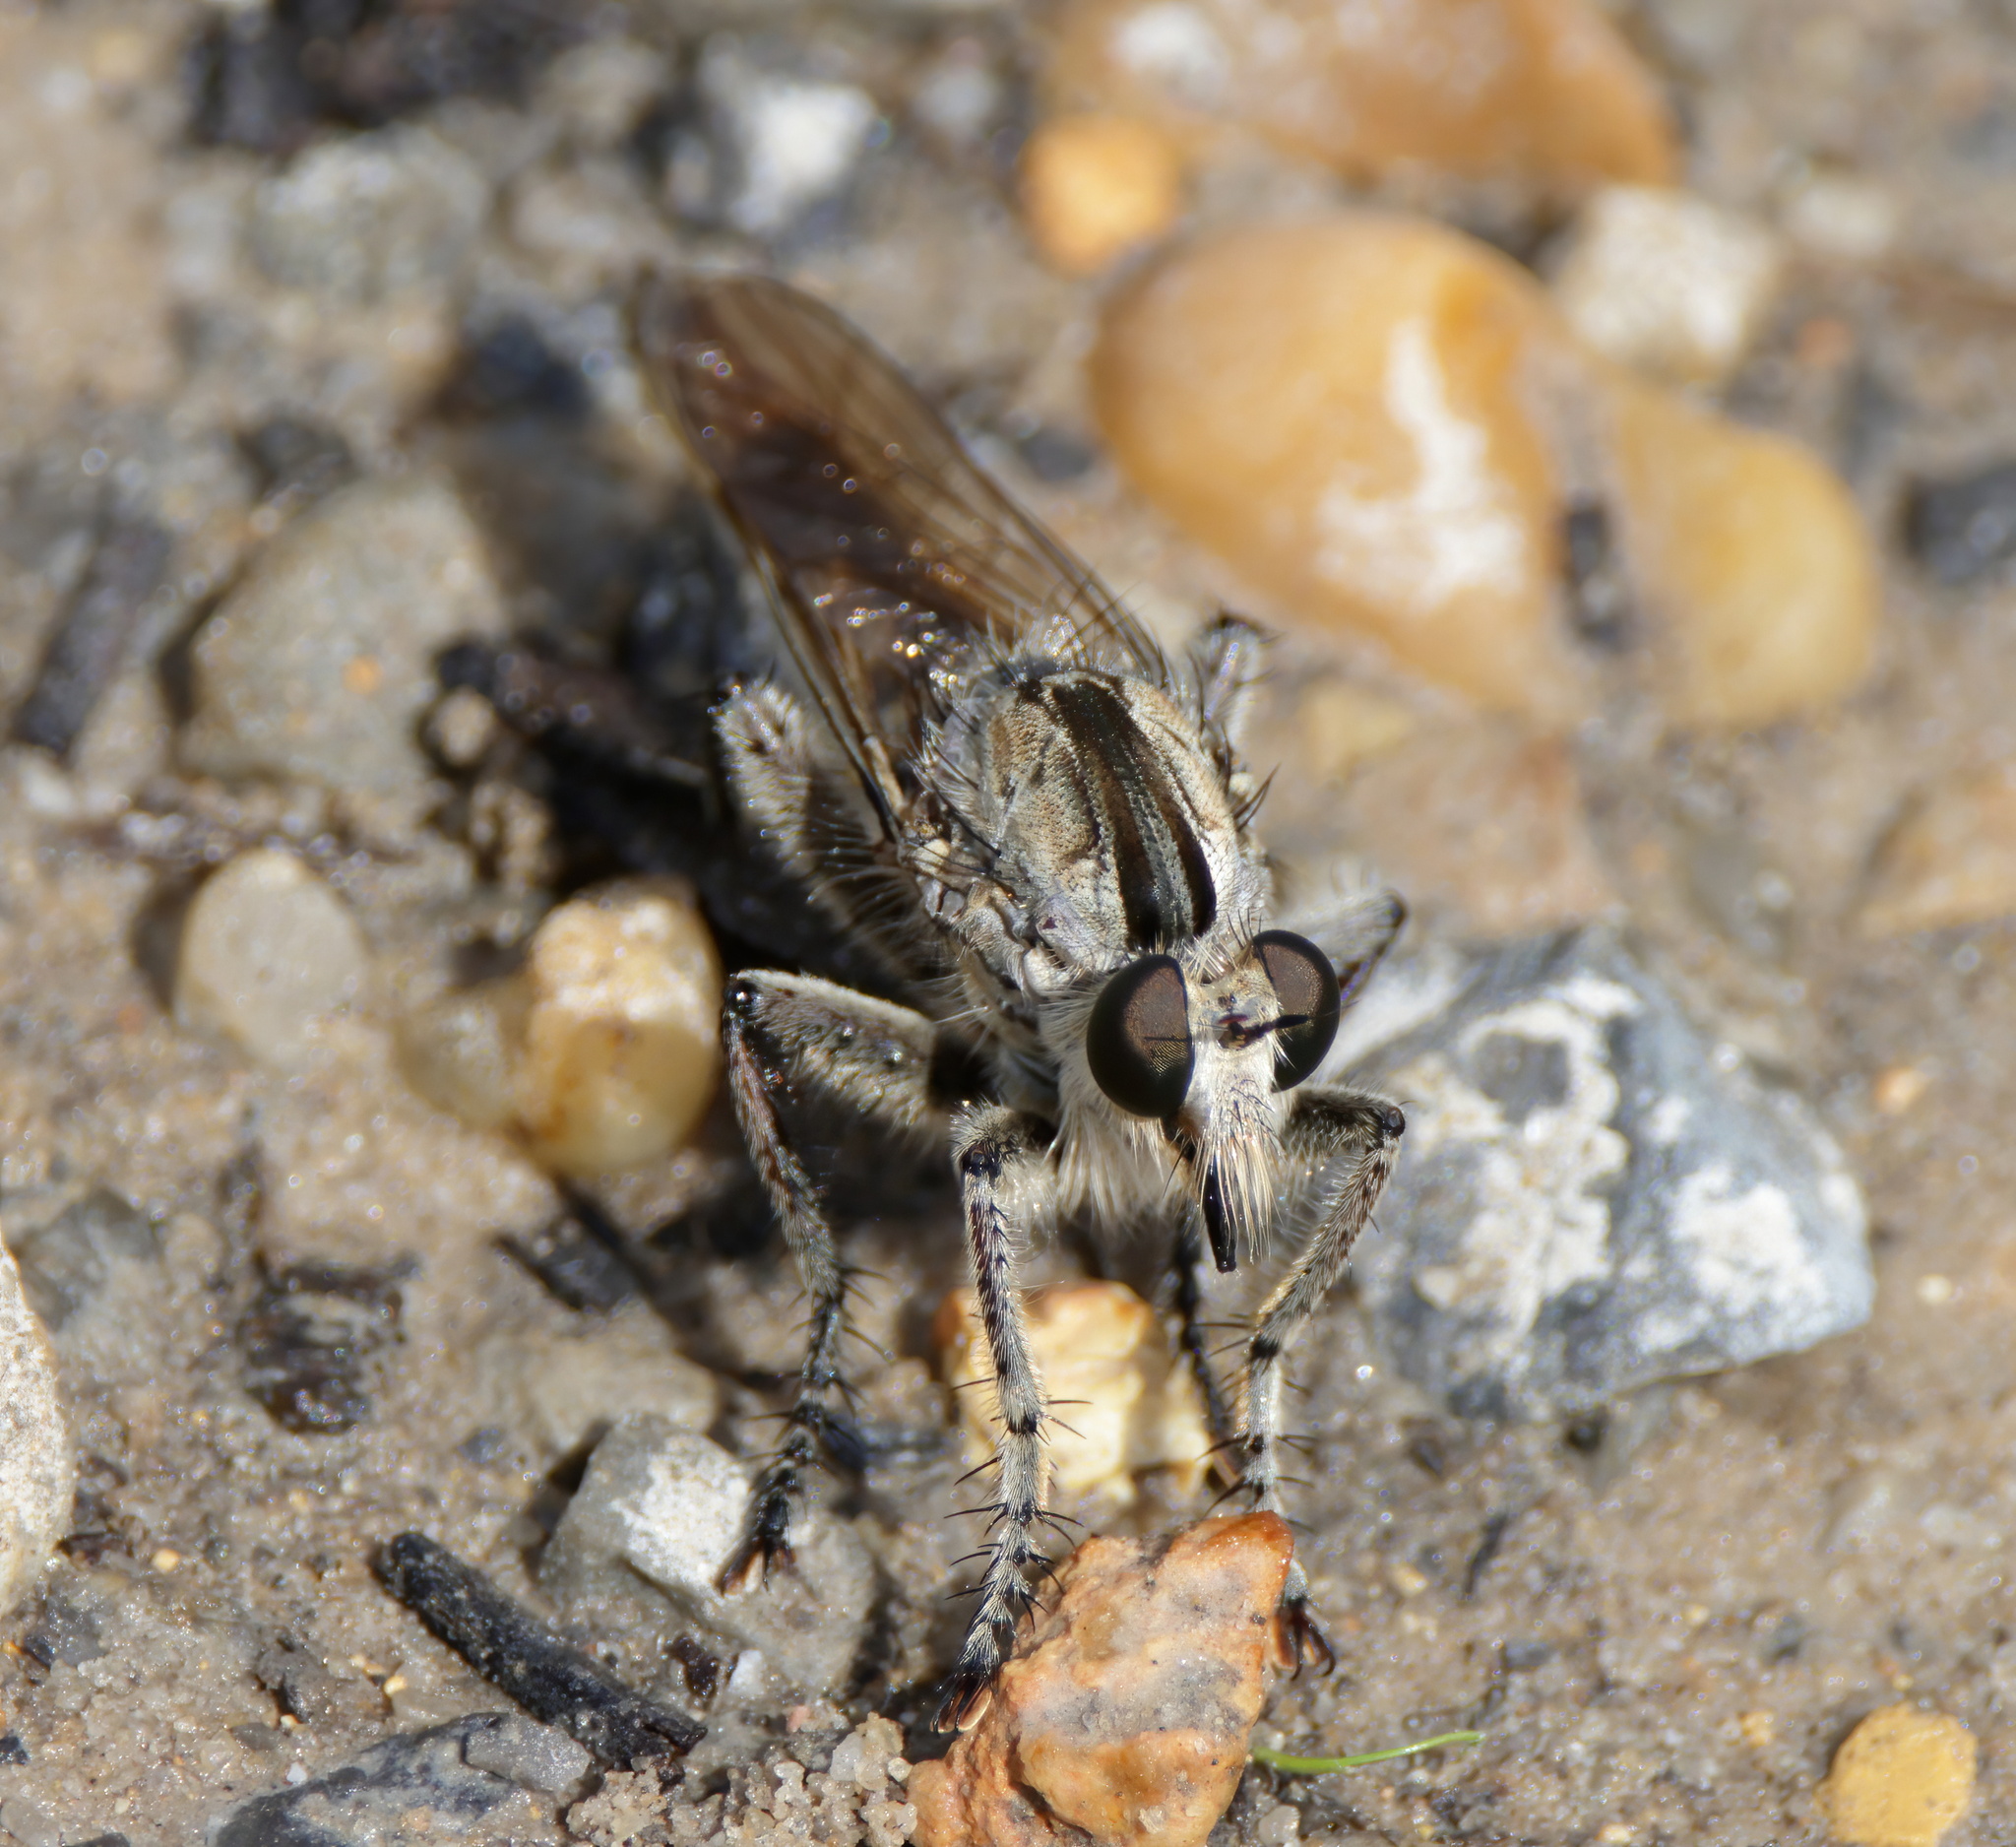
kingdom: Animalia
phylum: Arthropoda
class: Insecta
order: Diptera
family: Asilidae
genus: Triorla
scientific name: Triorla interrupta
